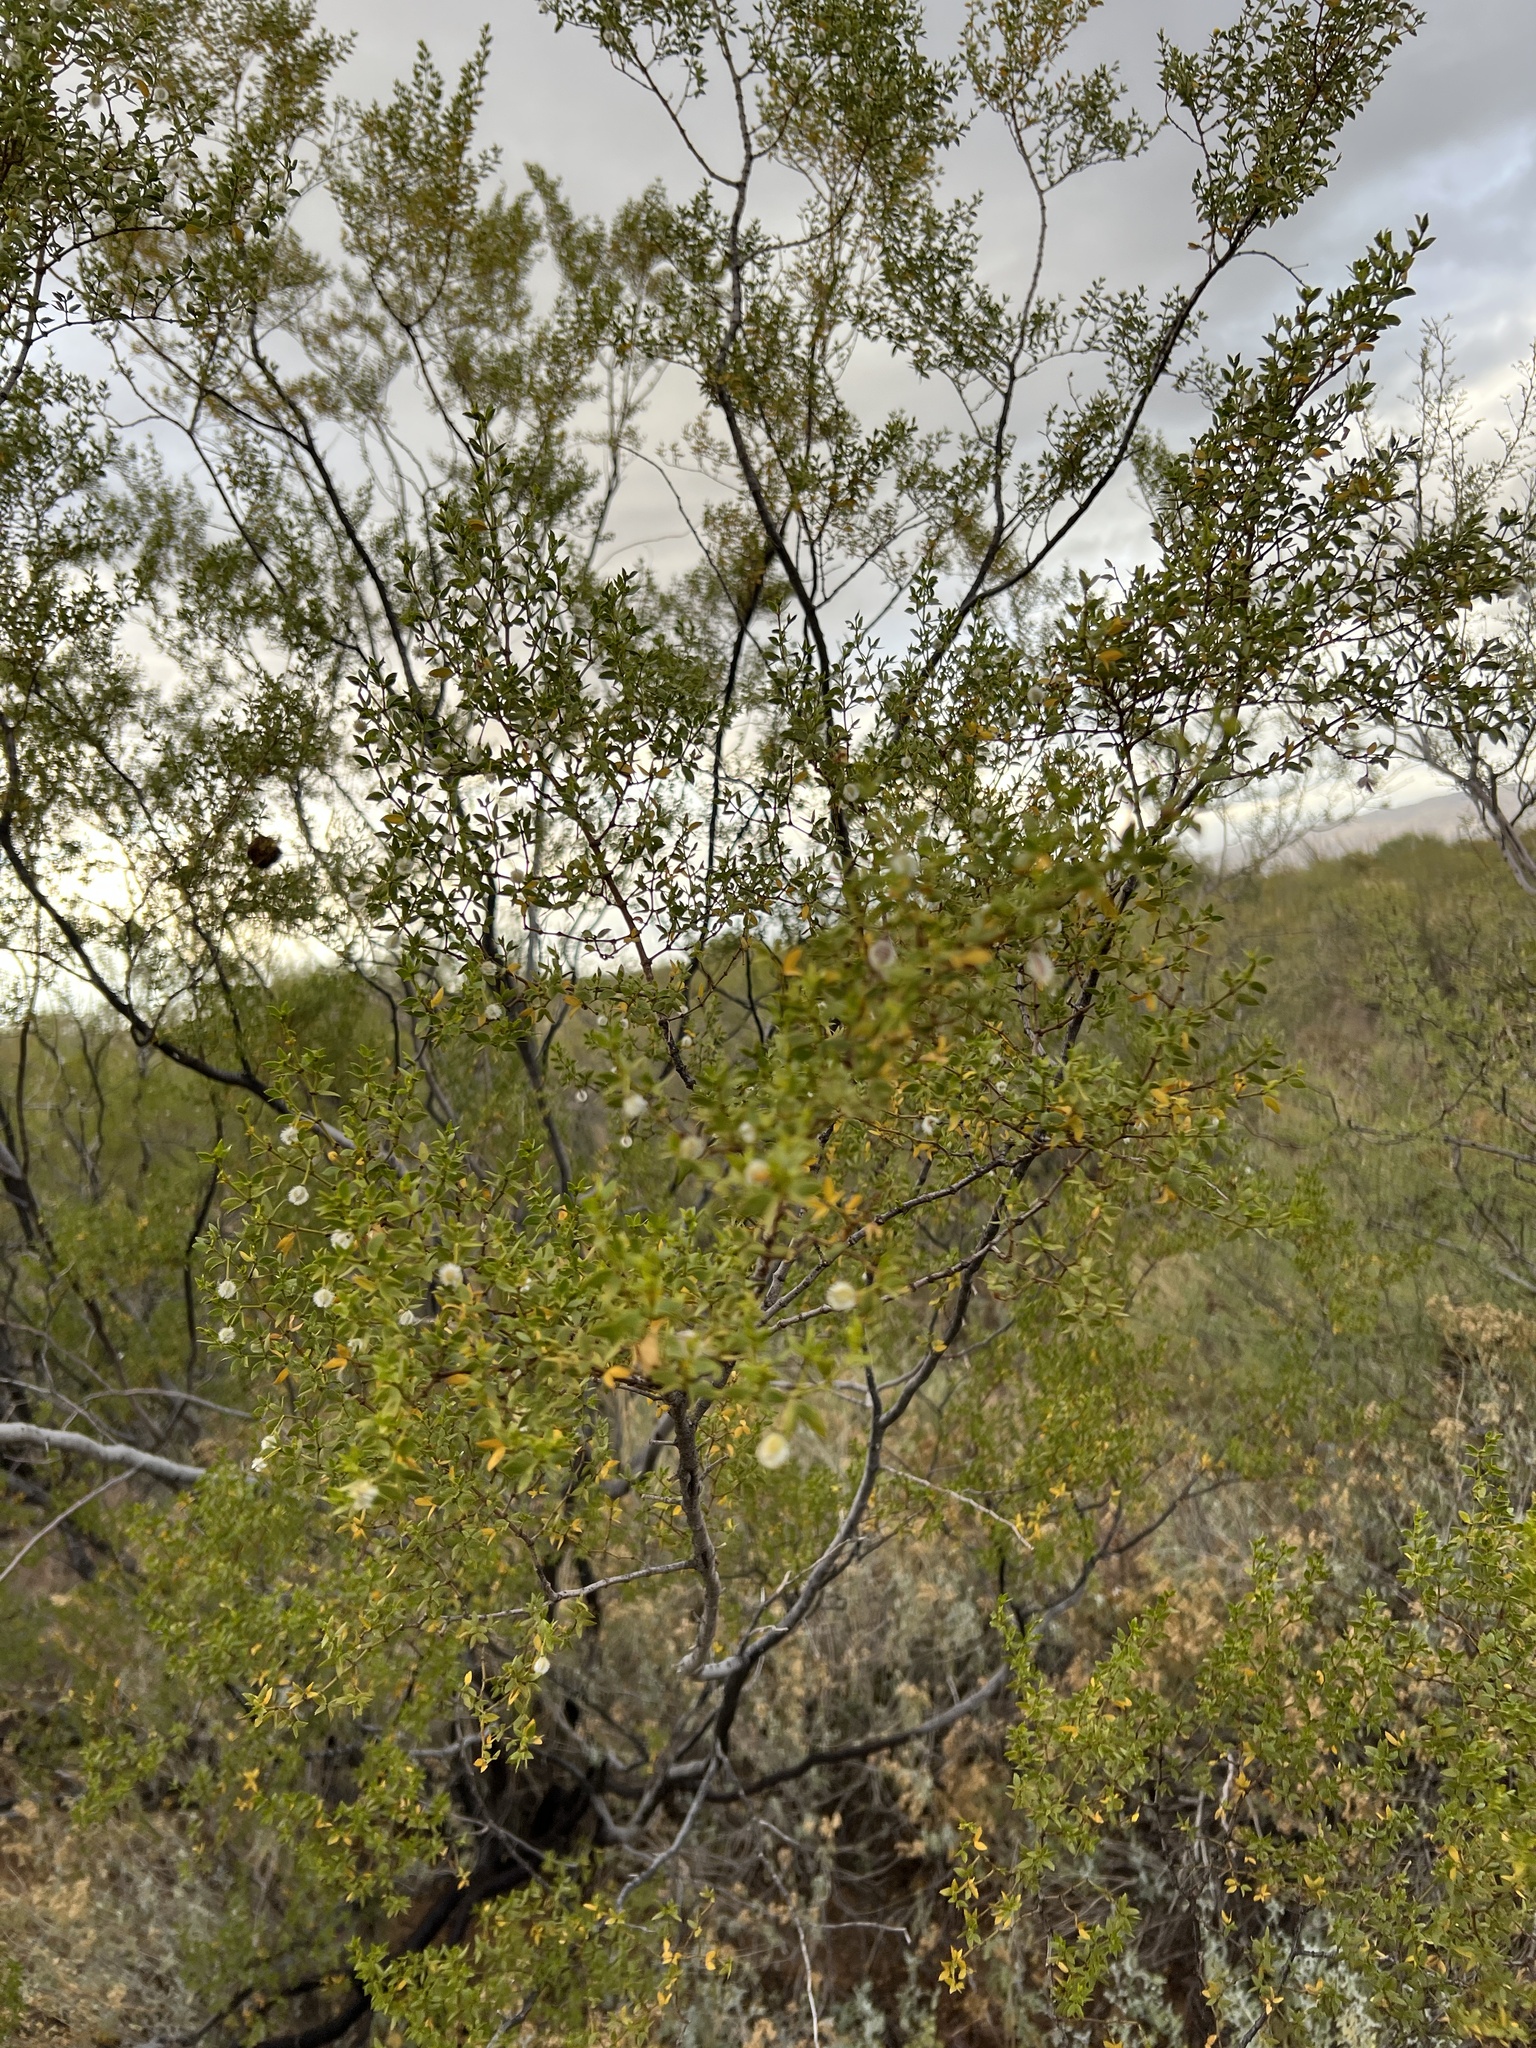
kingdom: Plantae
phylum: Tracheophyta
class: Magnoliopsida
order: Zygophyllales
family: Zygophyllaceae
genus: Larrea
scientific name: Larrea tridentata
